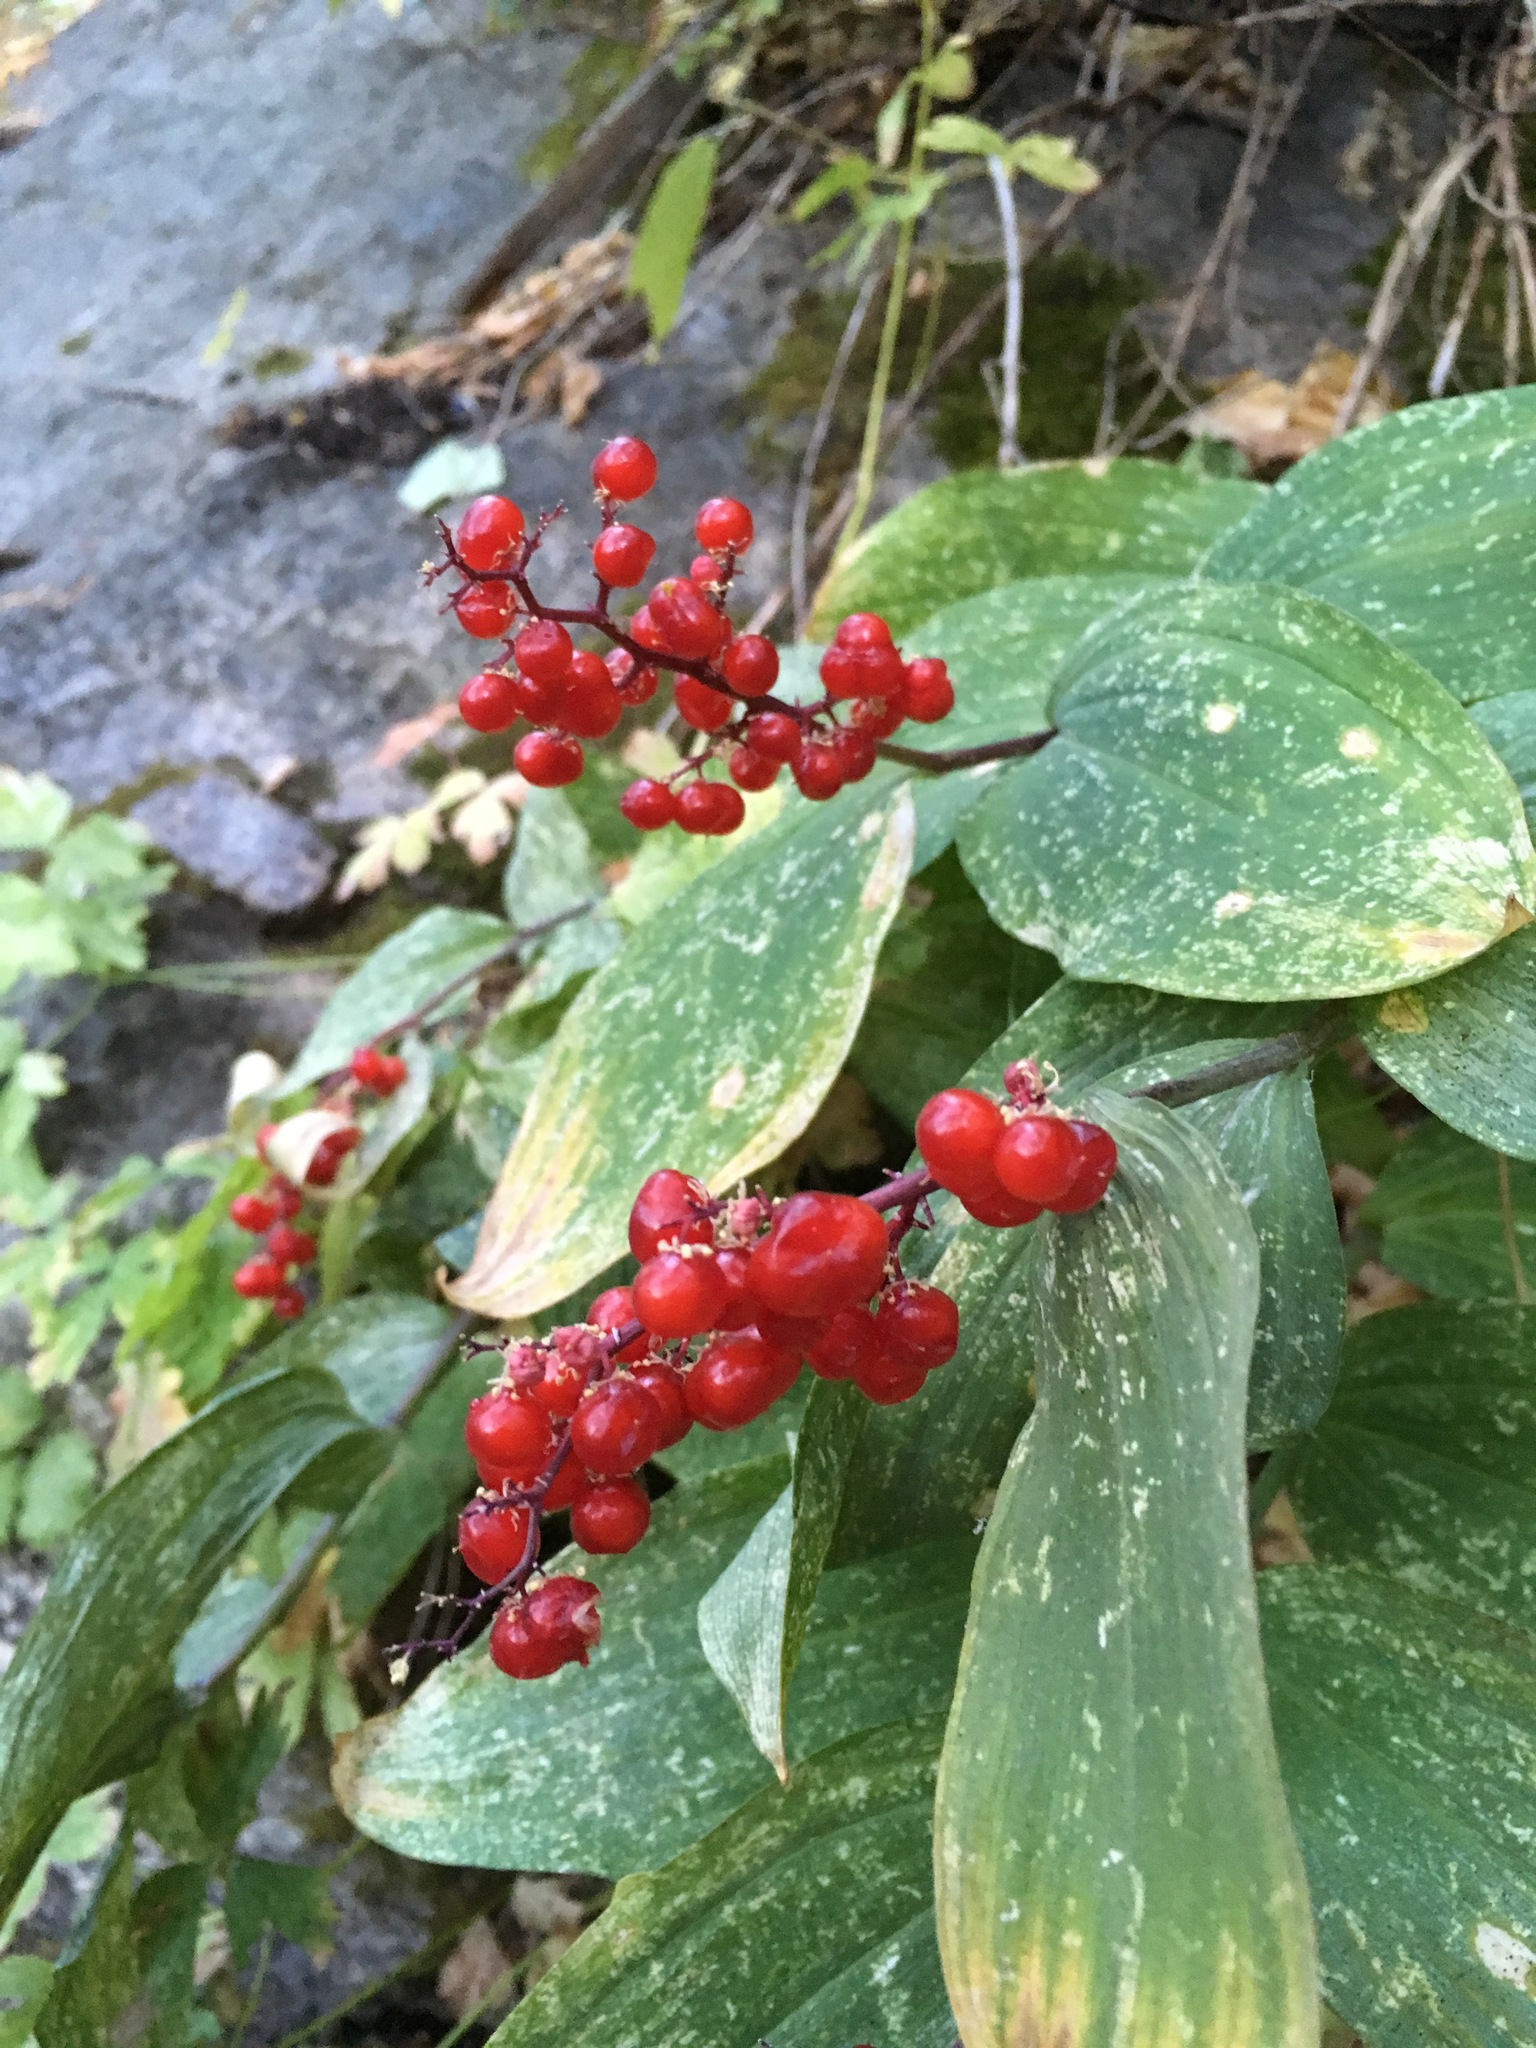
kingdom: Plantae
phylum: Tracheophyta
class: Liliopsida
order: Asparagales
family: Asparagaceae
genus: Maianthemum
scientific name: Maianthemum racemosum
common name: False spikenard
